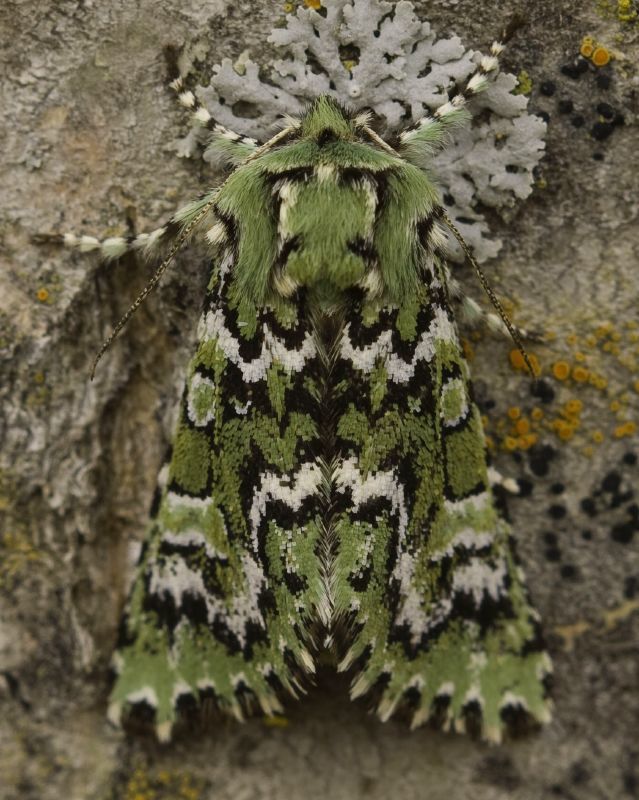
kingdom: Animalia
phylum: Arthropoda
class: Insecta
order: Lepidoptera
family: Noctuidae
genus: Feralia
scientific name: Feralia jocosa
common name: Joker
